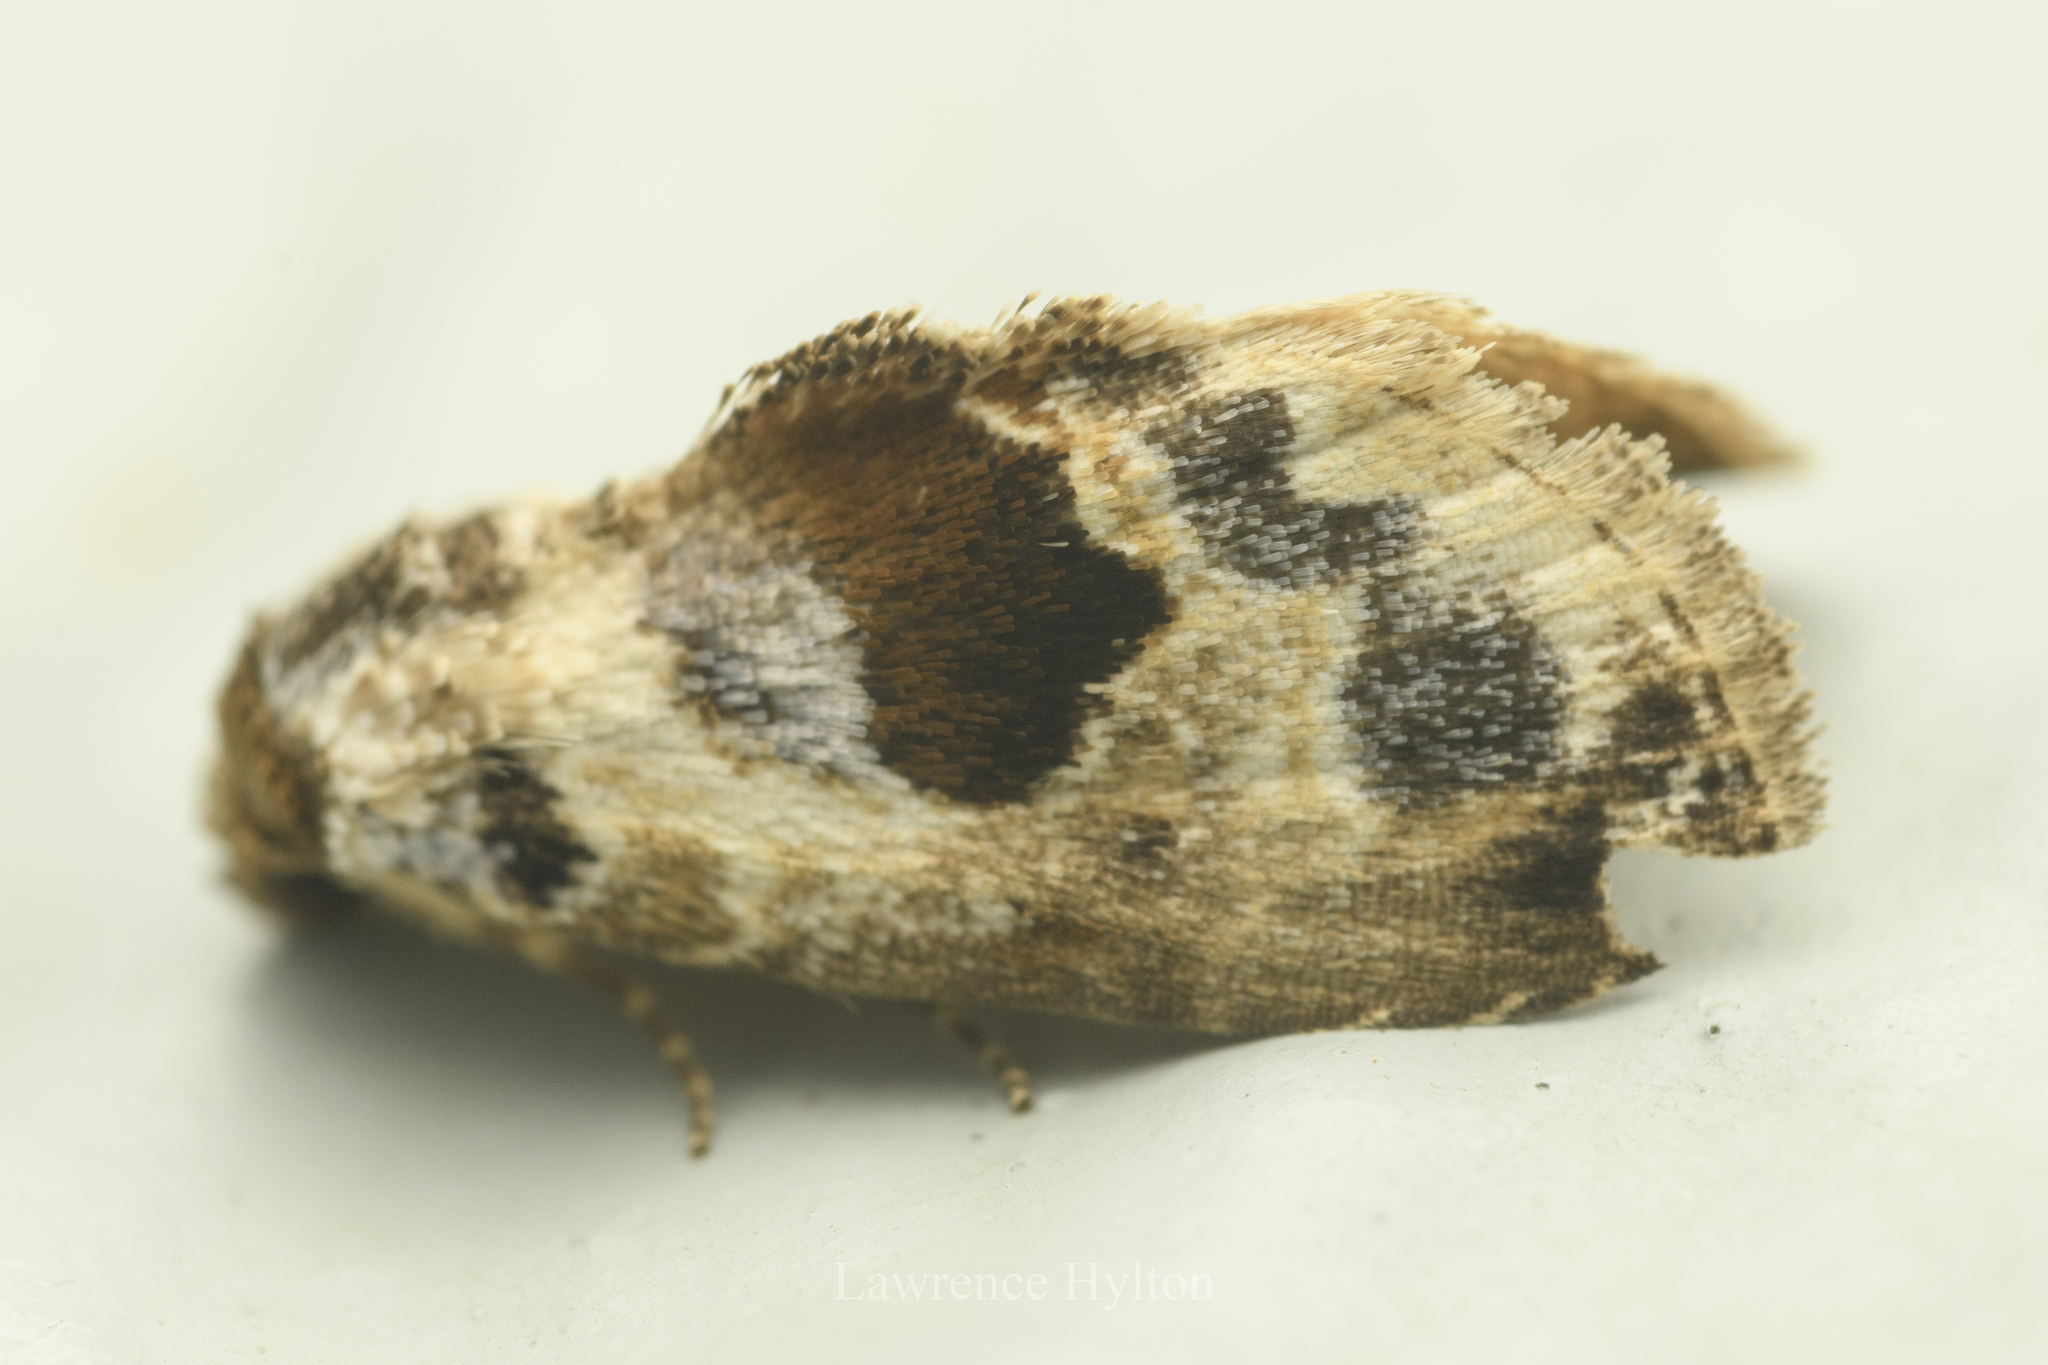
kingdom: Animalia
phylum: Arthropoda
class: Insecta
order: Lepidoptera
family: Noctuidae
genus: Meekistrotia
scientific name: Meekistrotia
